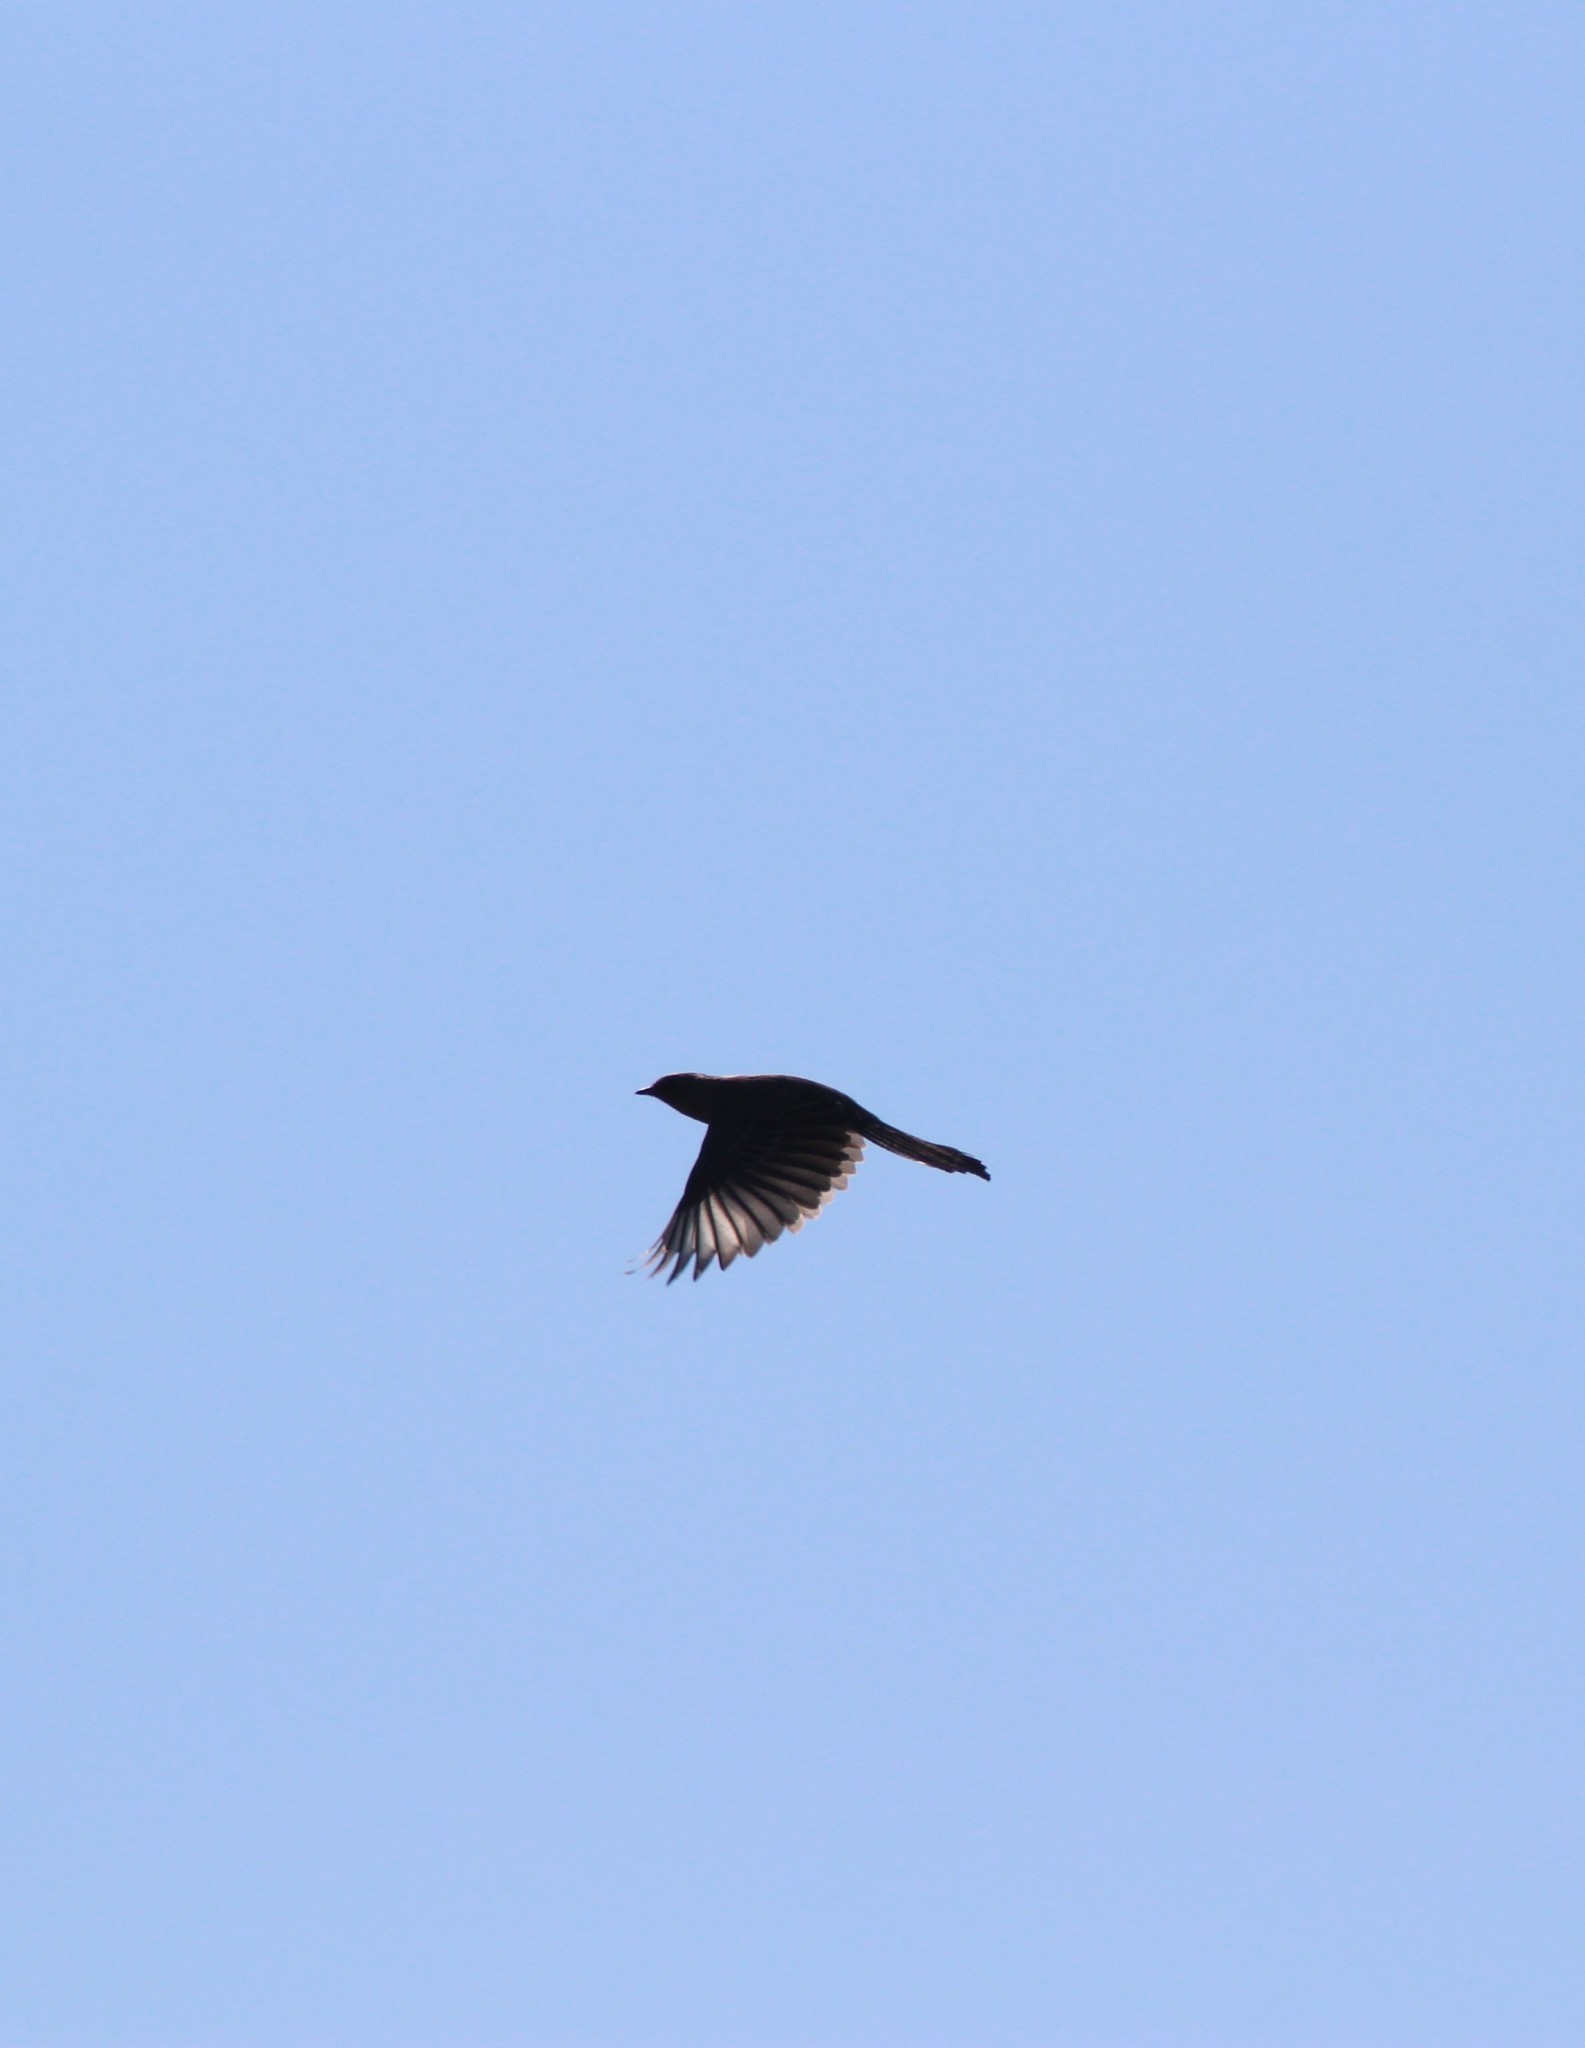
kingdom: Animalia
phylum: Chordata
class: Aves
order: Passeriformes
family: Ptilogonatidae
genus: Phainopepla
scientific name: Phainopepla nitens
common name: Phainopepla
